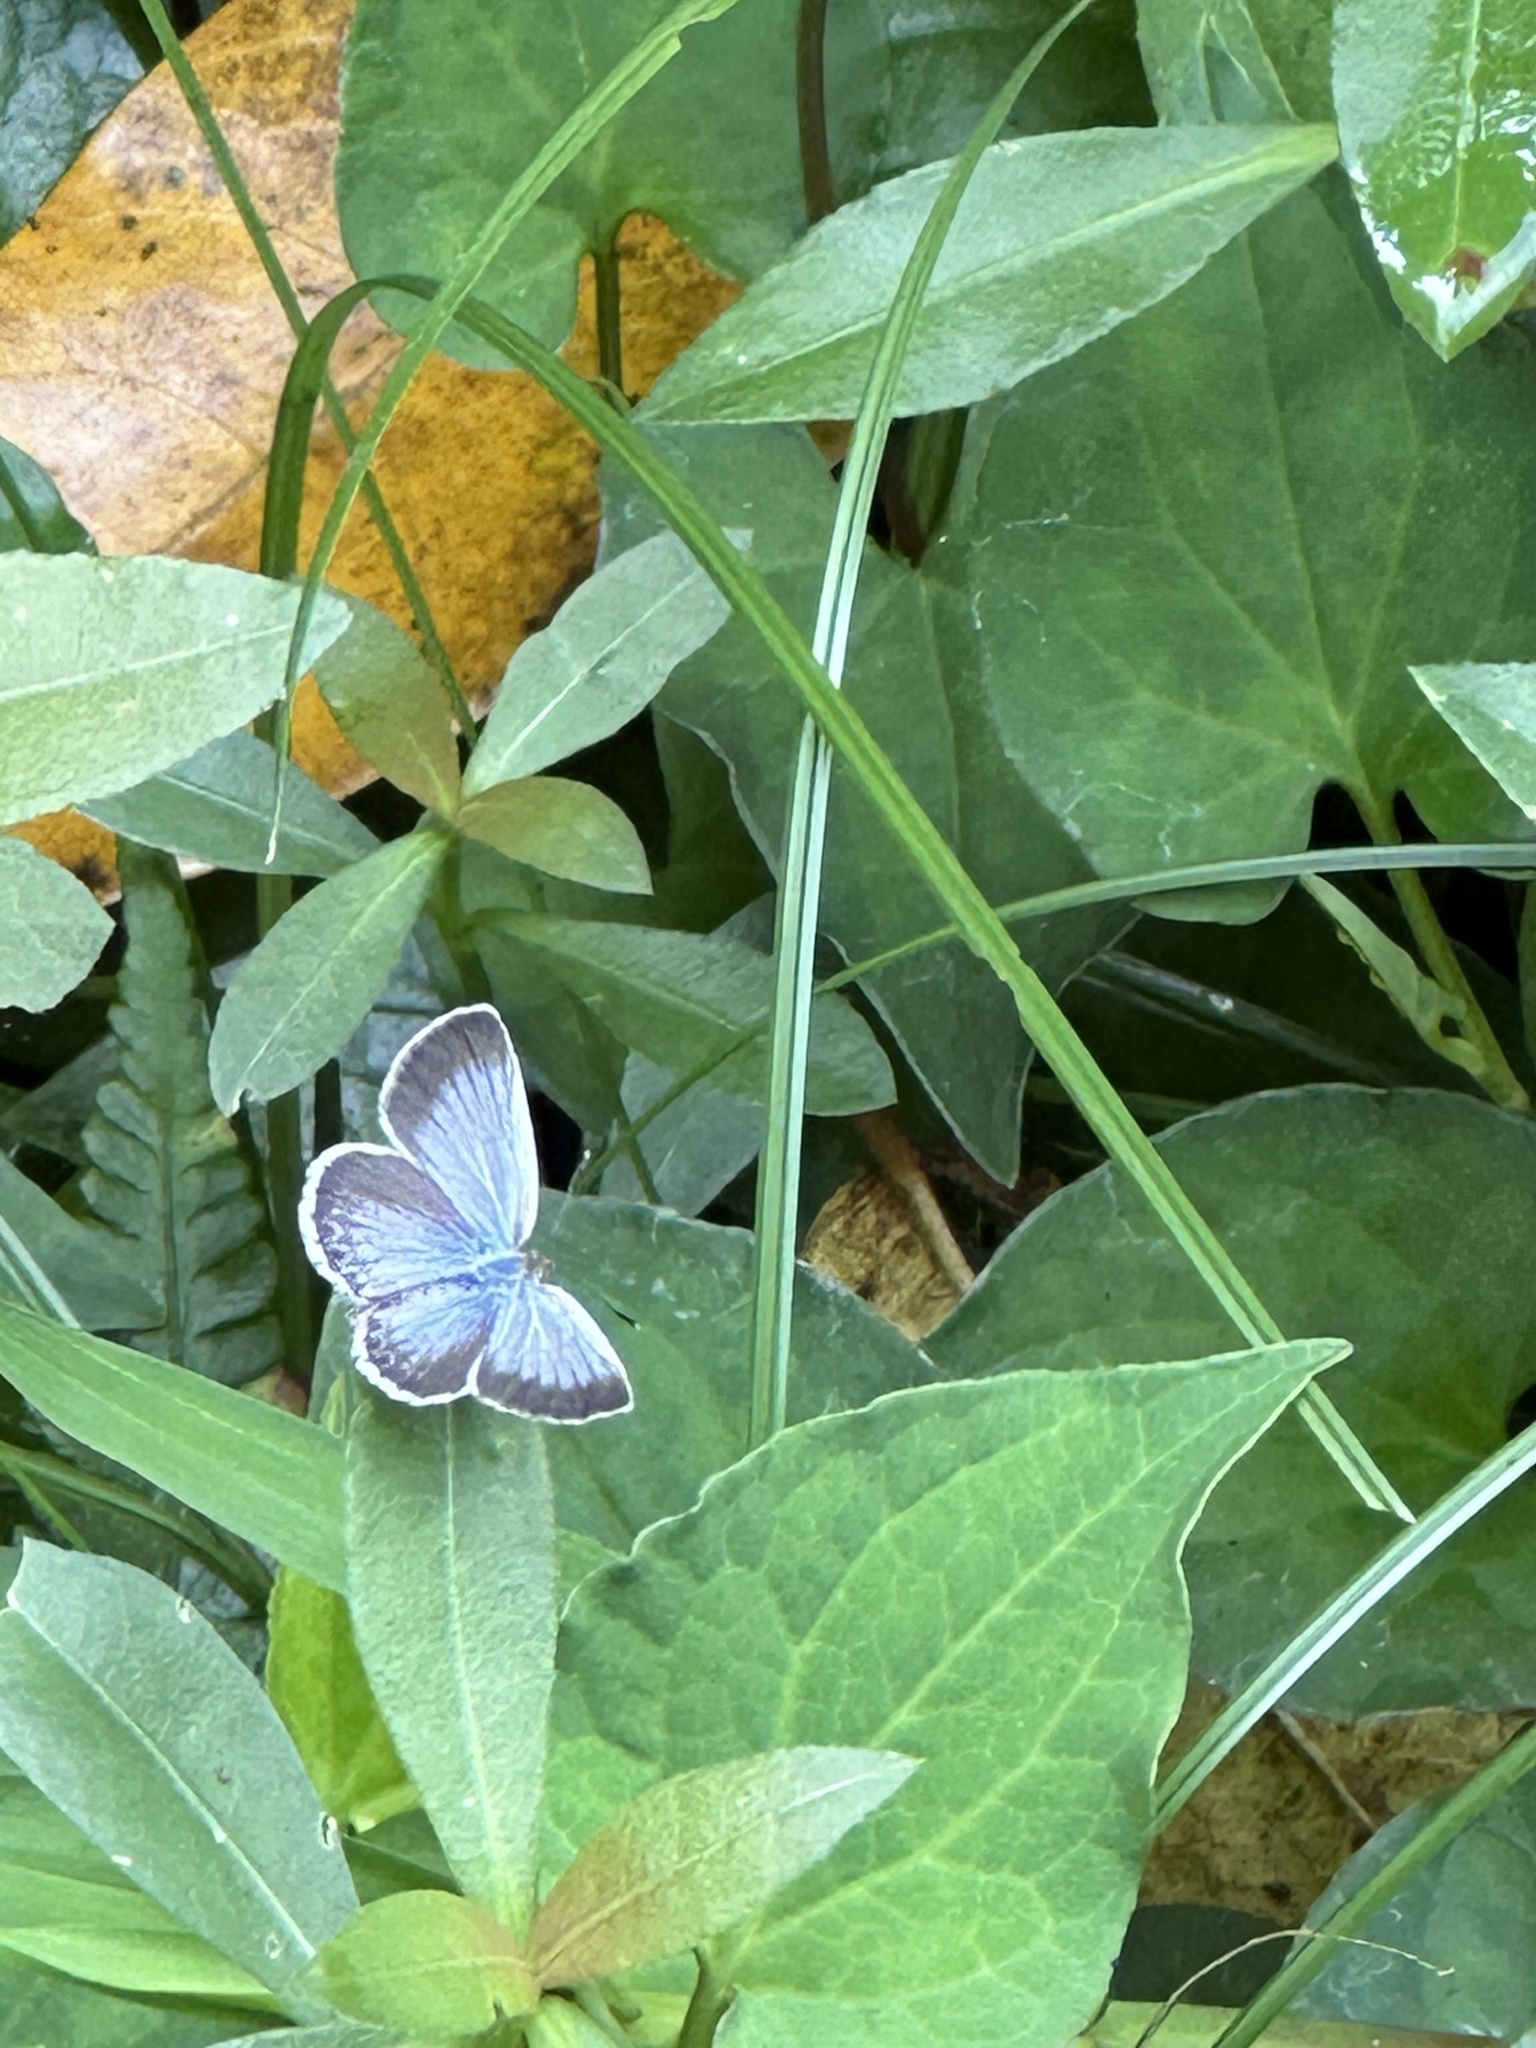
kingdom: Animalia
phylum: Arthropoda
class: Insecta
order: Lepidoptera
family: Lycaenidae
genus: Pseudozizeeria
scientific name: Pseudozizeeria maha
